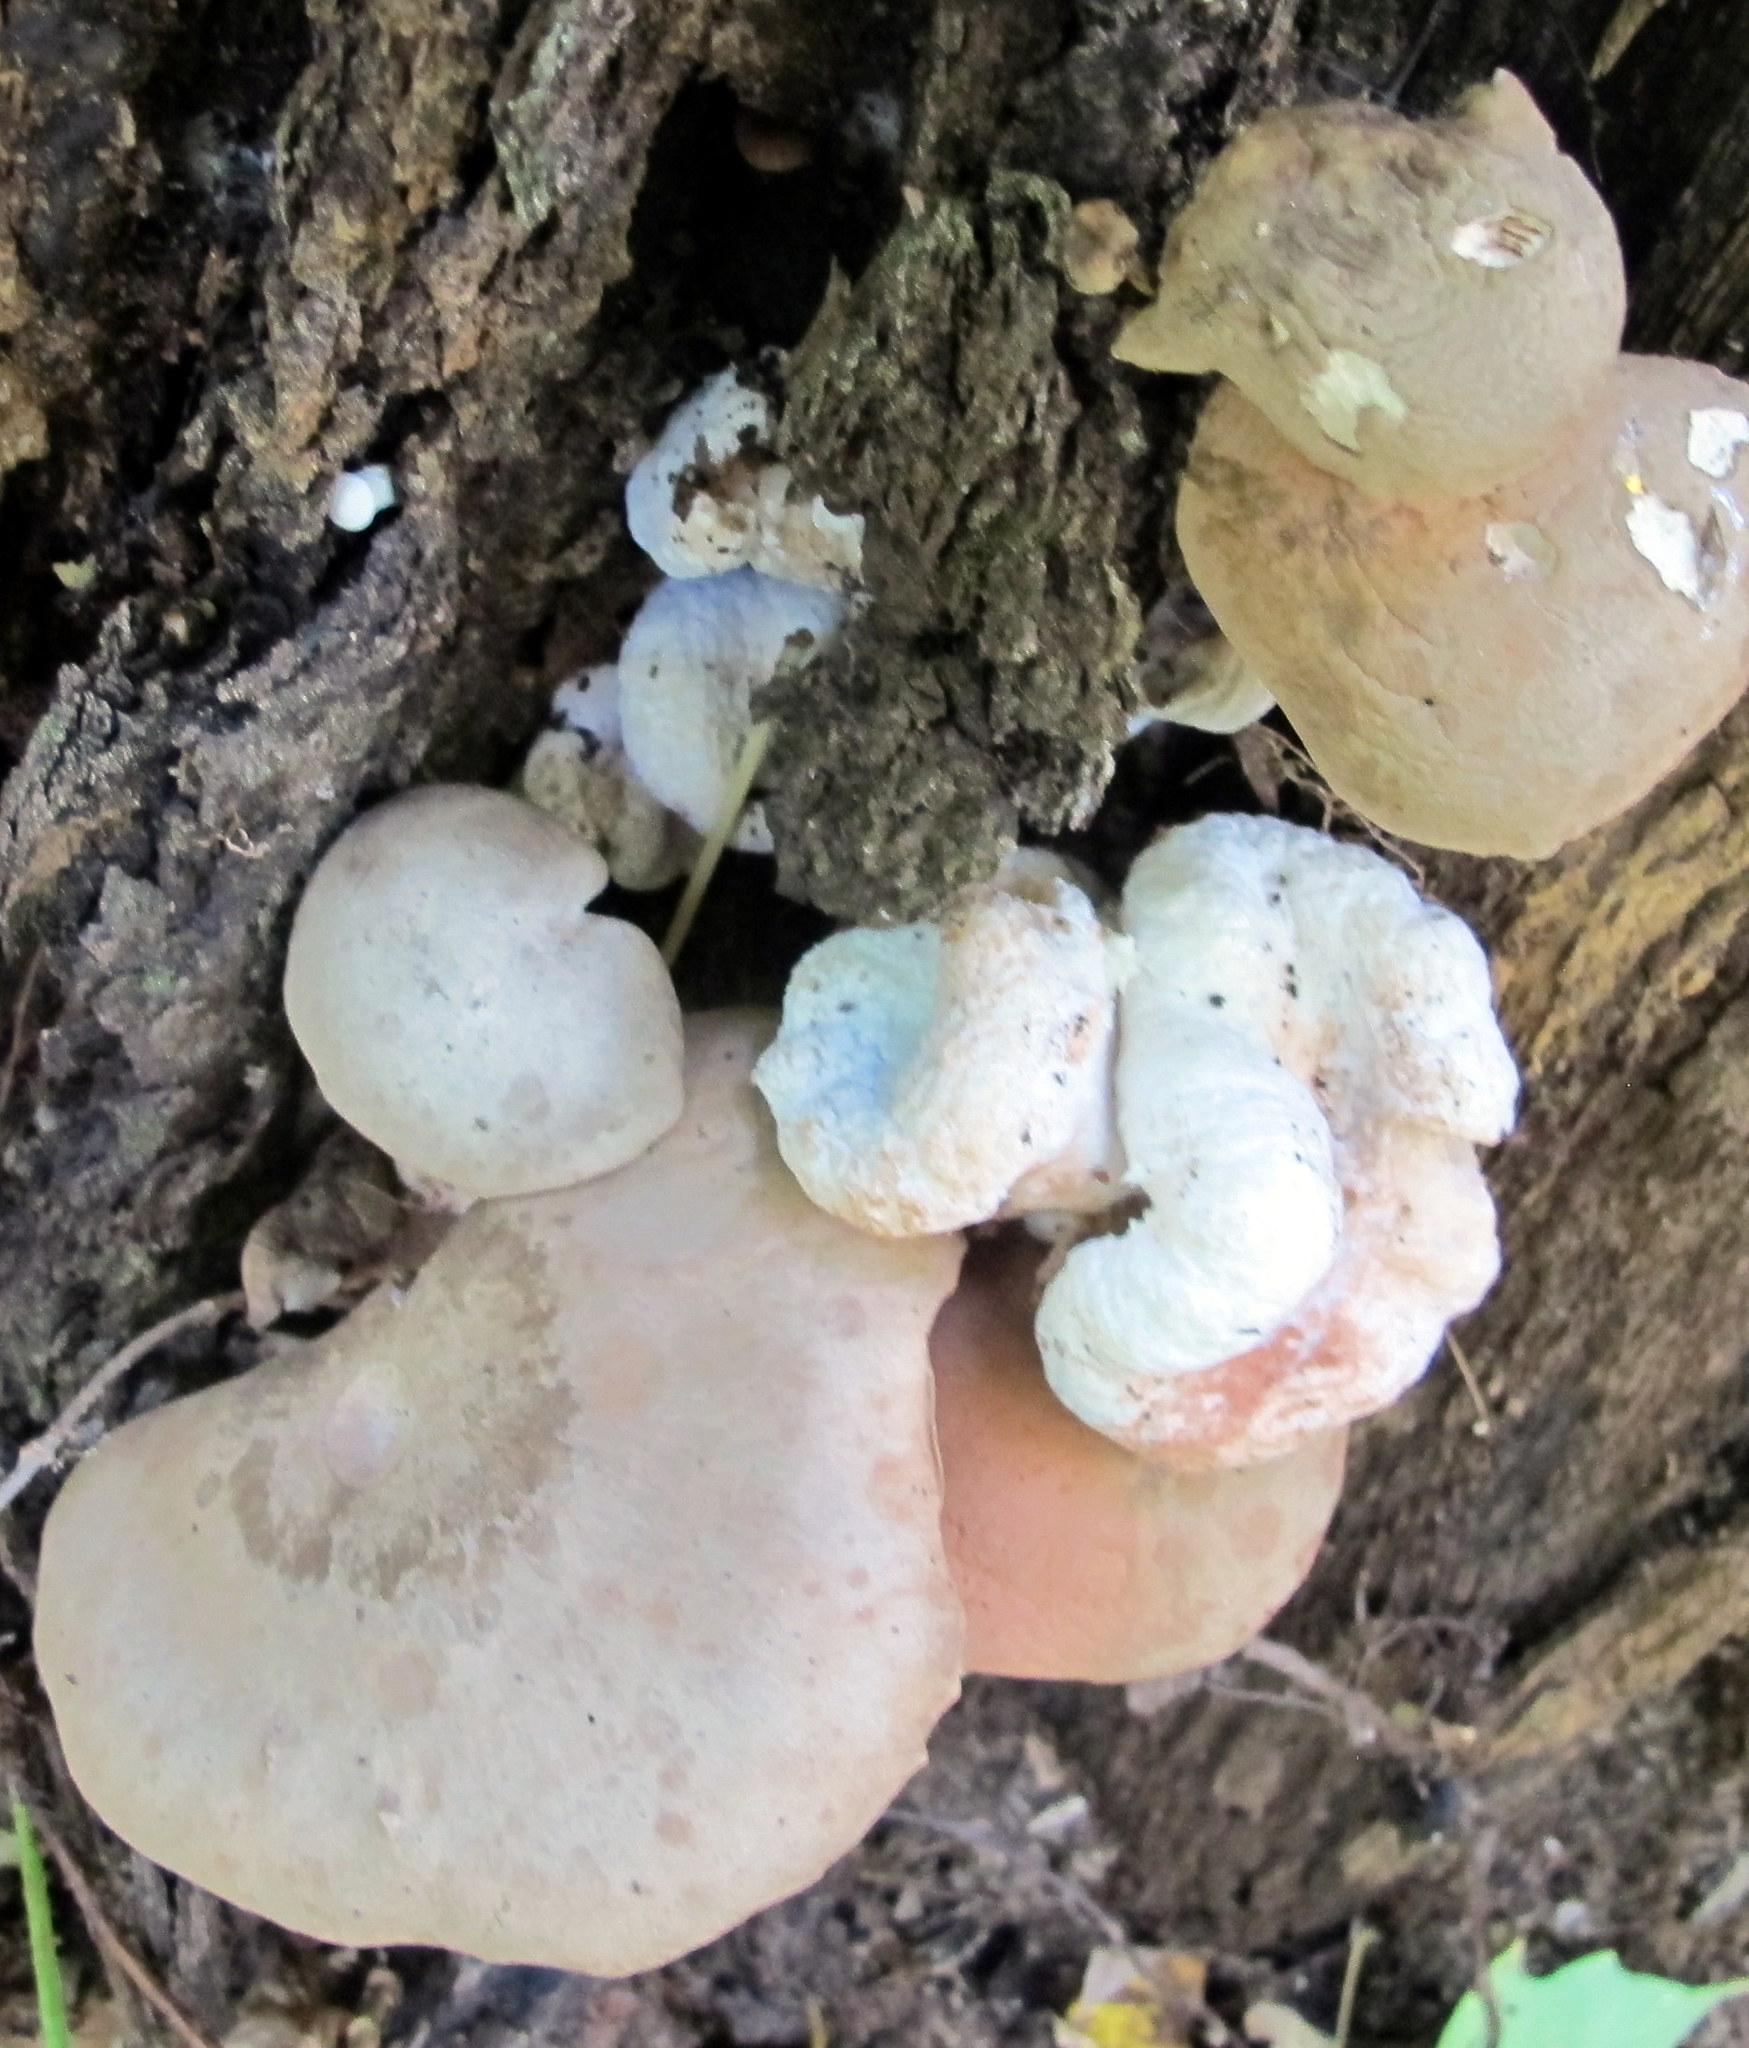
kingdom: Fungi
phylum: Basidiomycota
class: Agaricomycetes
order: Agaricales
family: Entolomataceae
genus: Entoloma
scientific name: Entoloma abortivum
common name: Aborted entoloma
